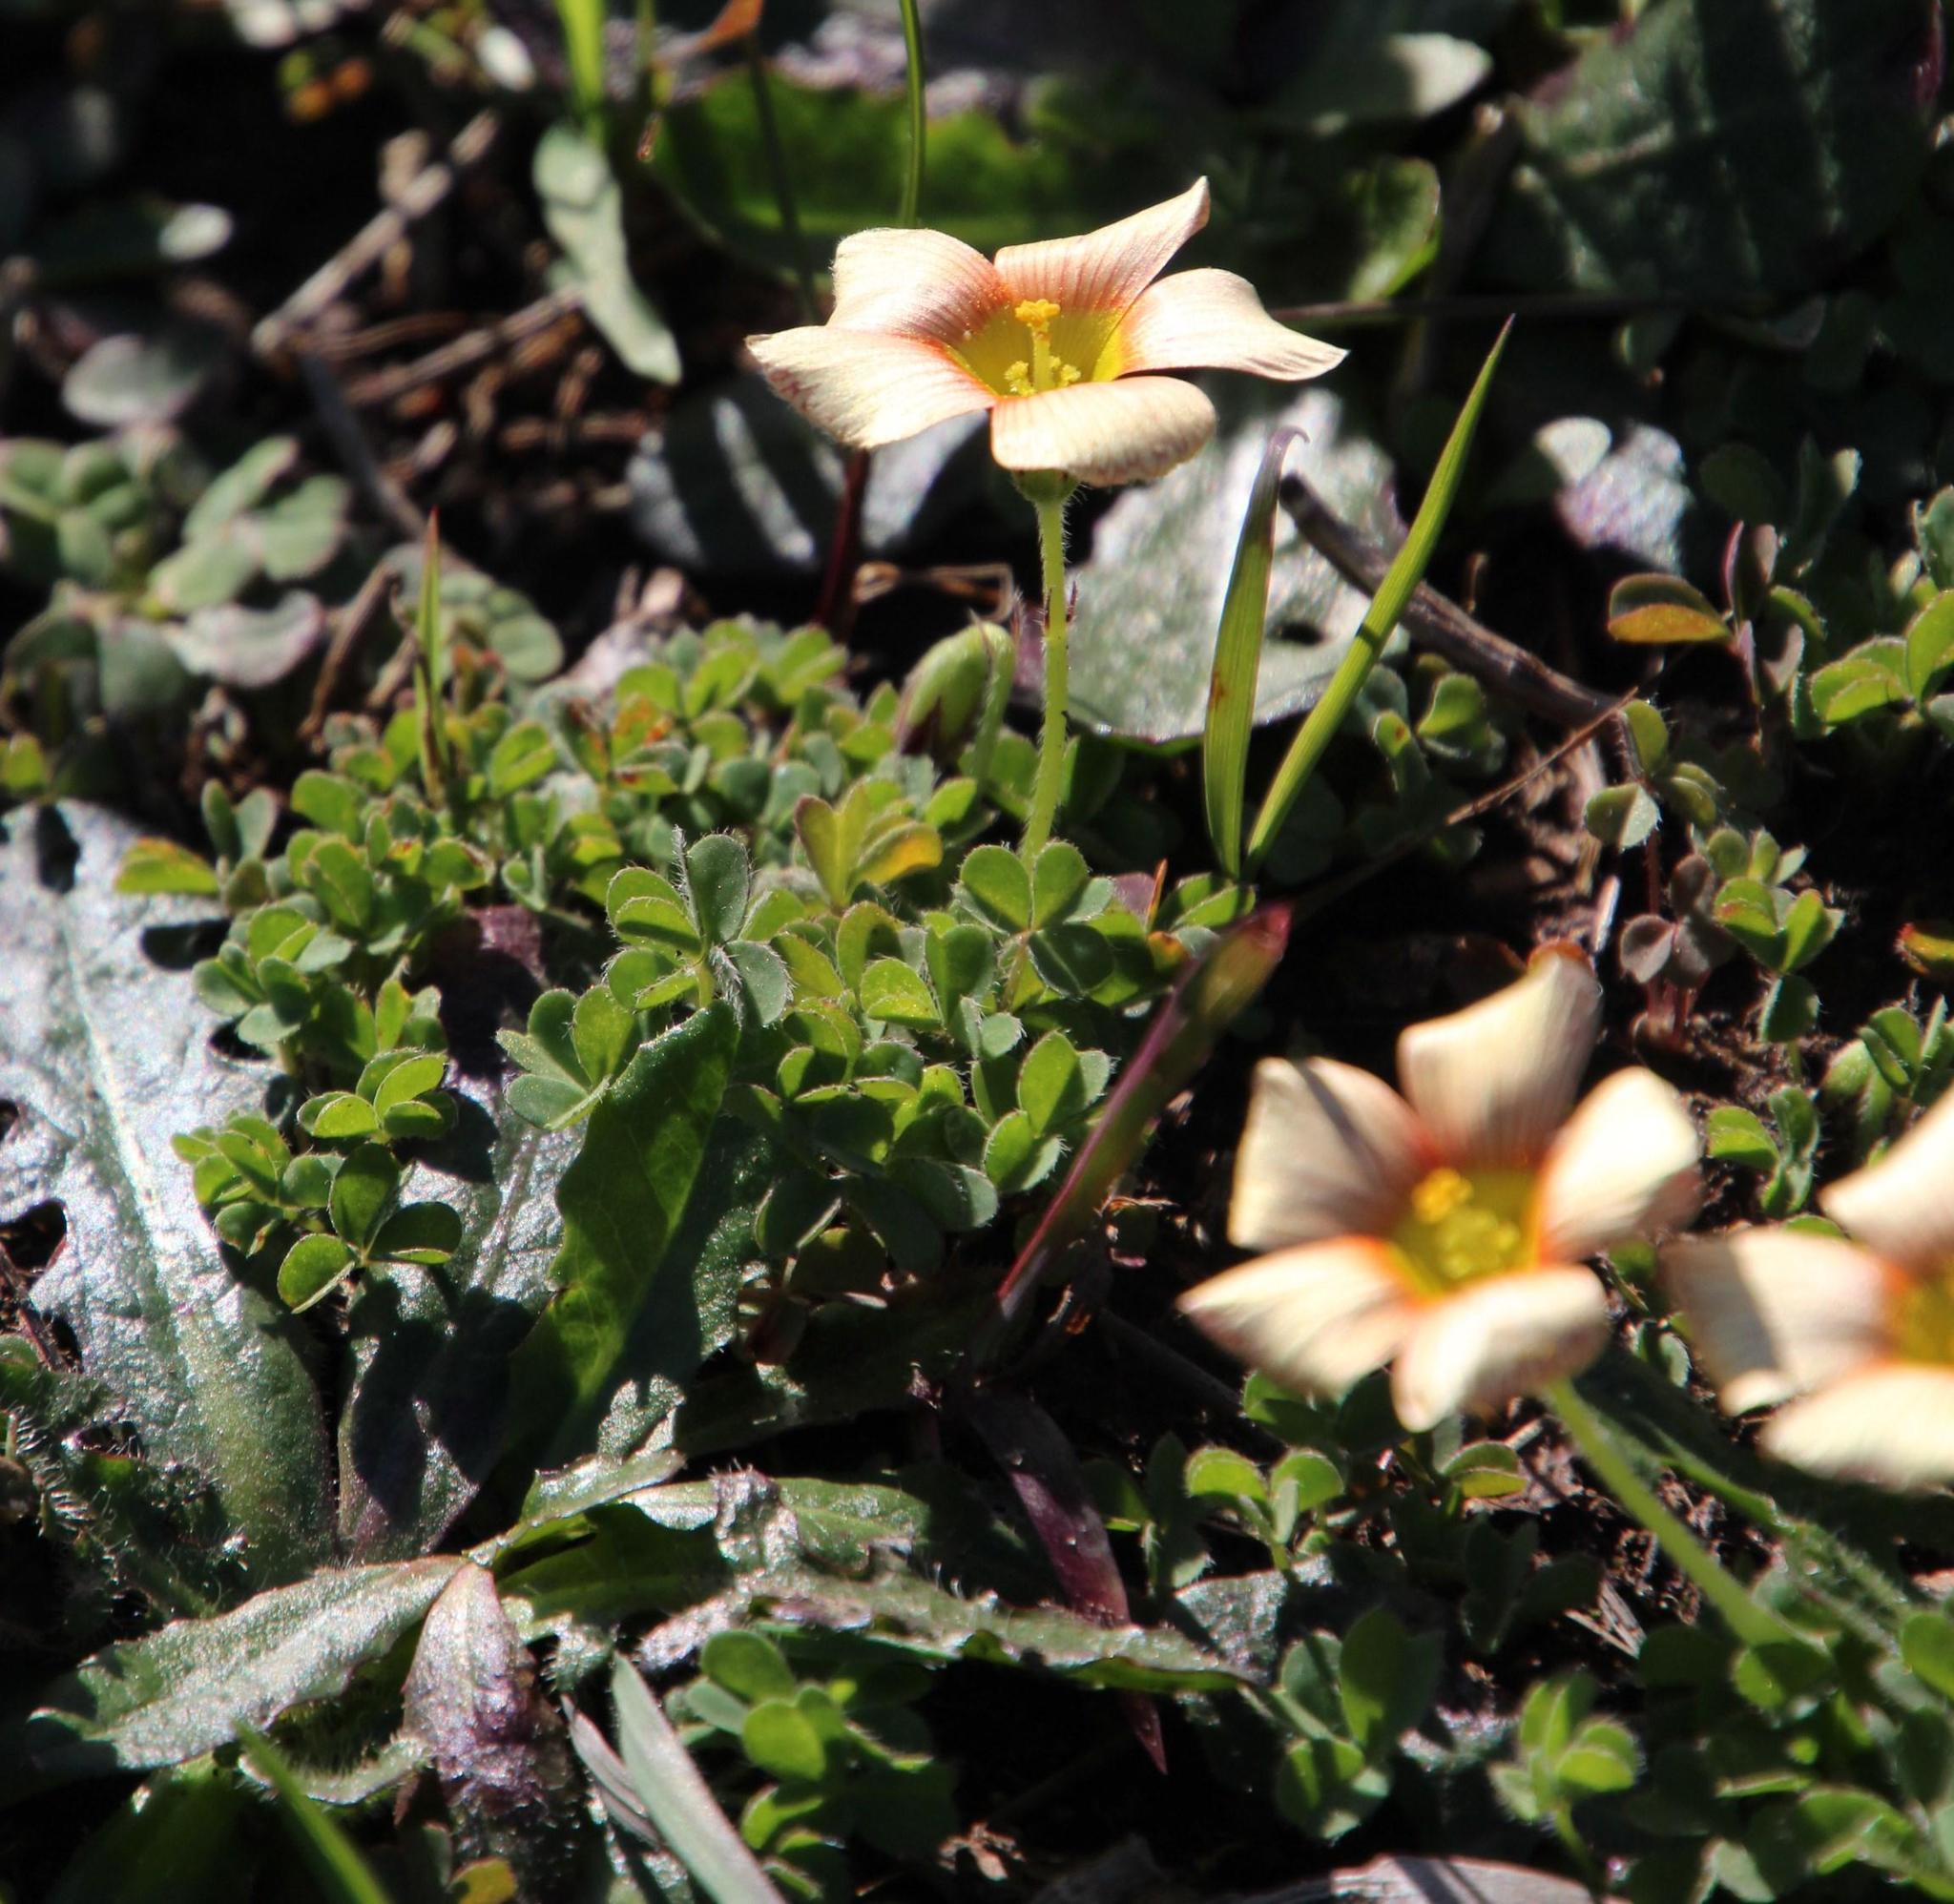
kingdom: Plantae
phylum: Tracheophyta
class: Magnoliopsida
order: Oxalidales
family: Oxalidaceae
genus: Oxalis
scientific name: Oxalis obtusa
